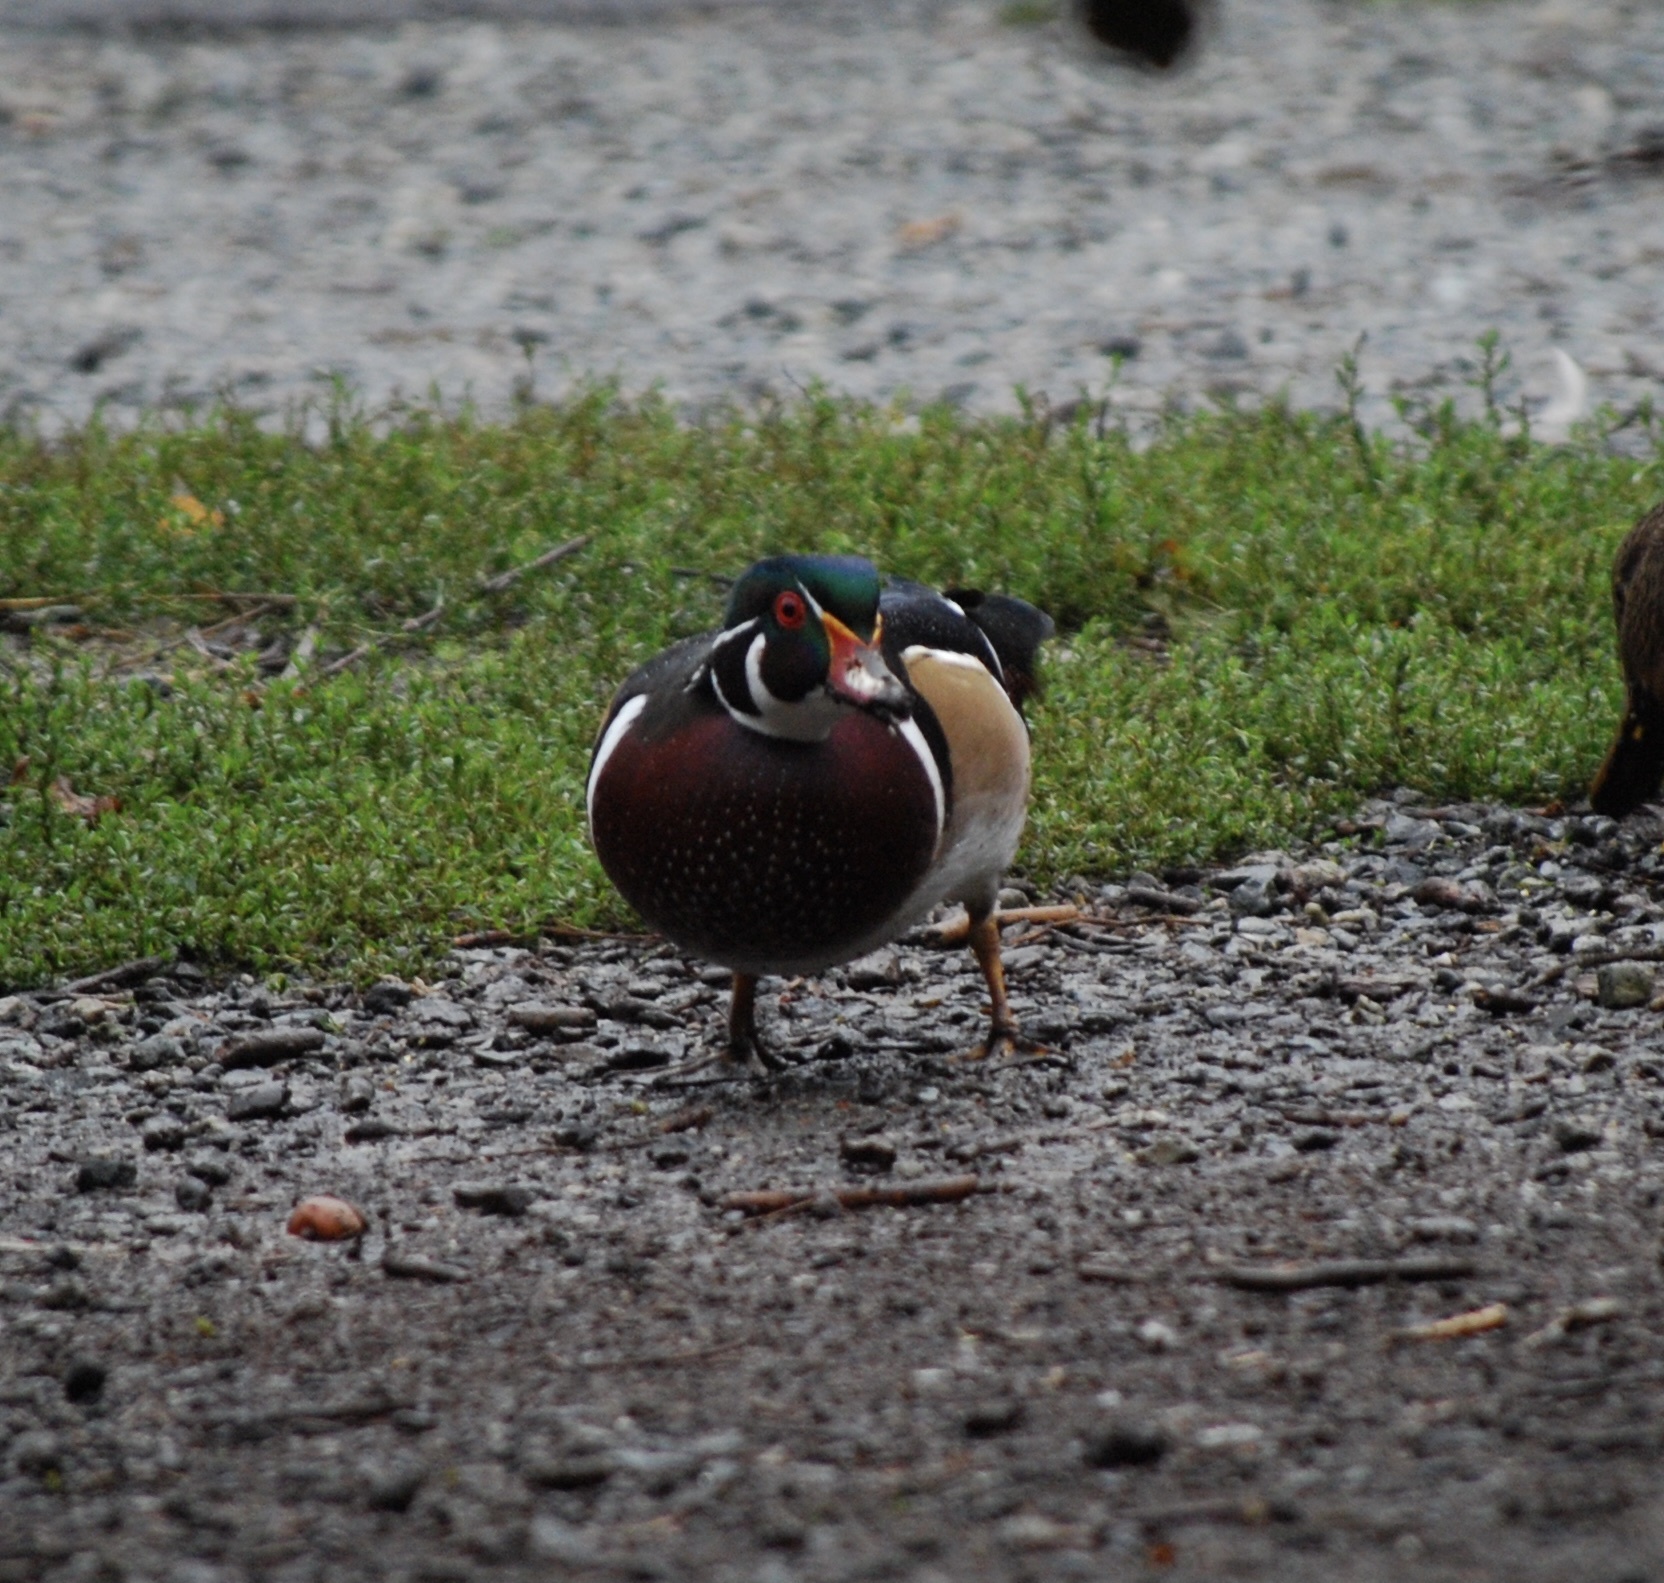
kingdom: Animalia
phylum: Chordata
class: Aves
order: Anseriformes
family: Anatidae
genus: Aix
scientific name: Aix sponsa
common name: Wood duck
